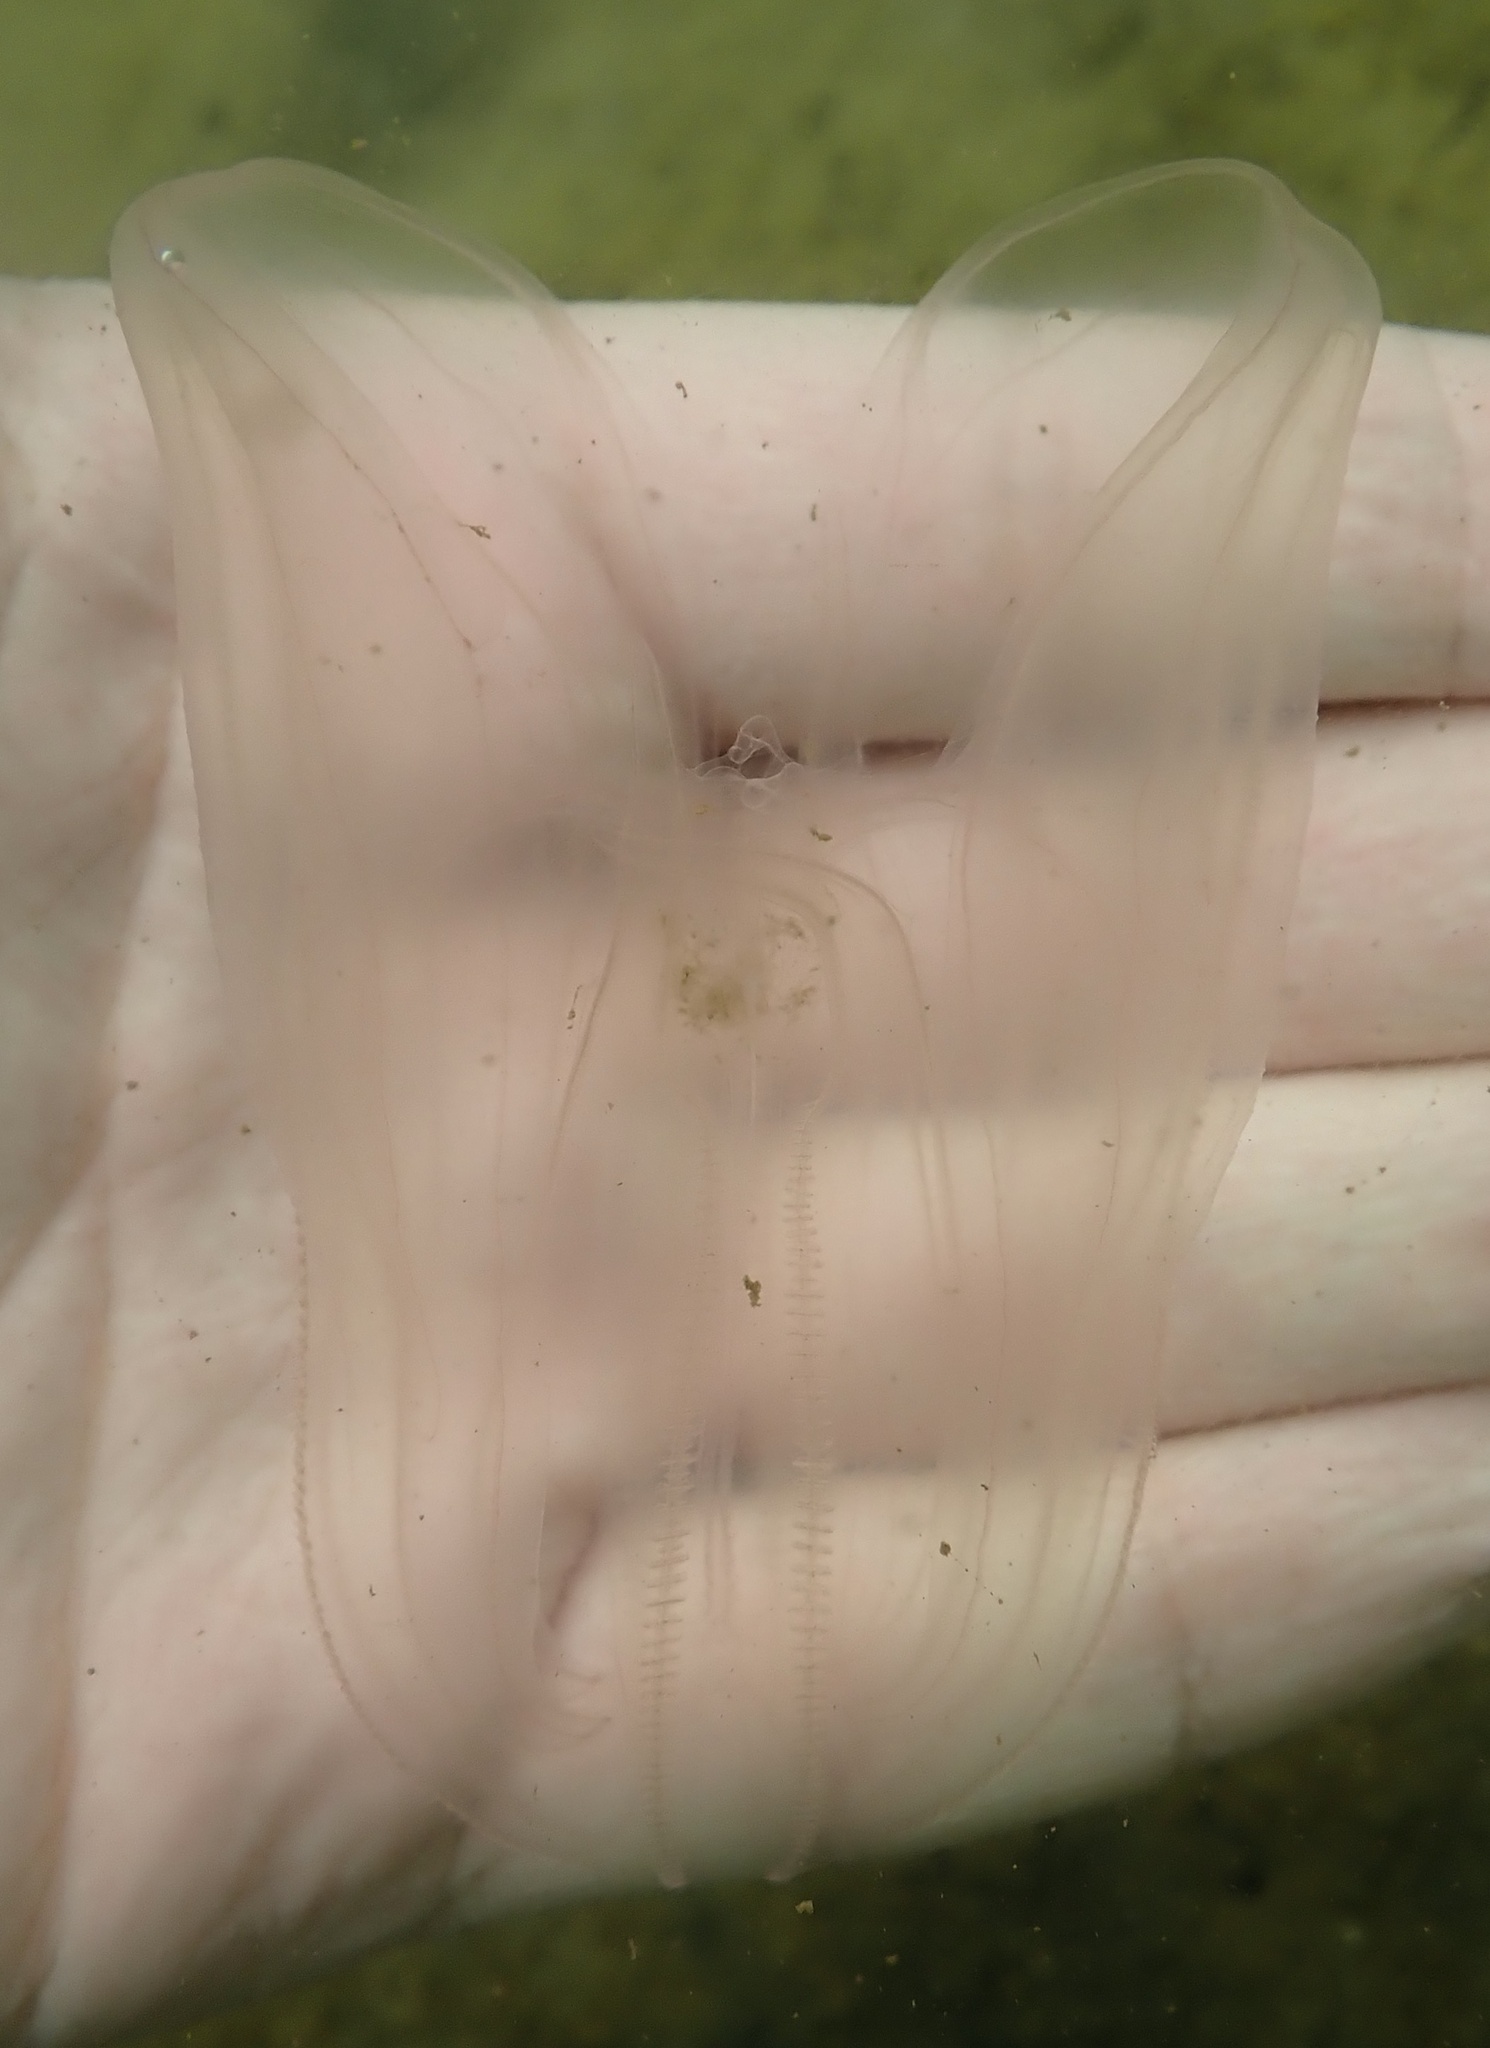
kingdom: Animalia
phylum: Ctenophora
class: Tentaculata
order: Lobata
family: Bolinopsidae
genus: Mnemiopsis
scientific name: Mnemiopsis leidyi
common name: American comb jelly
